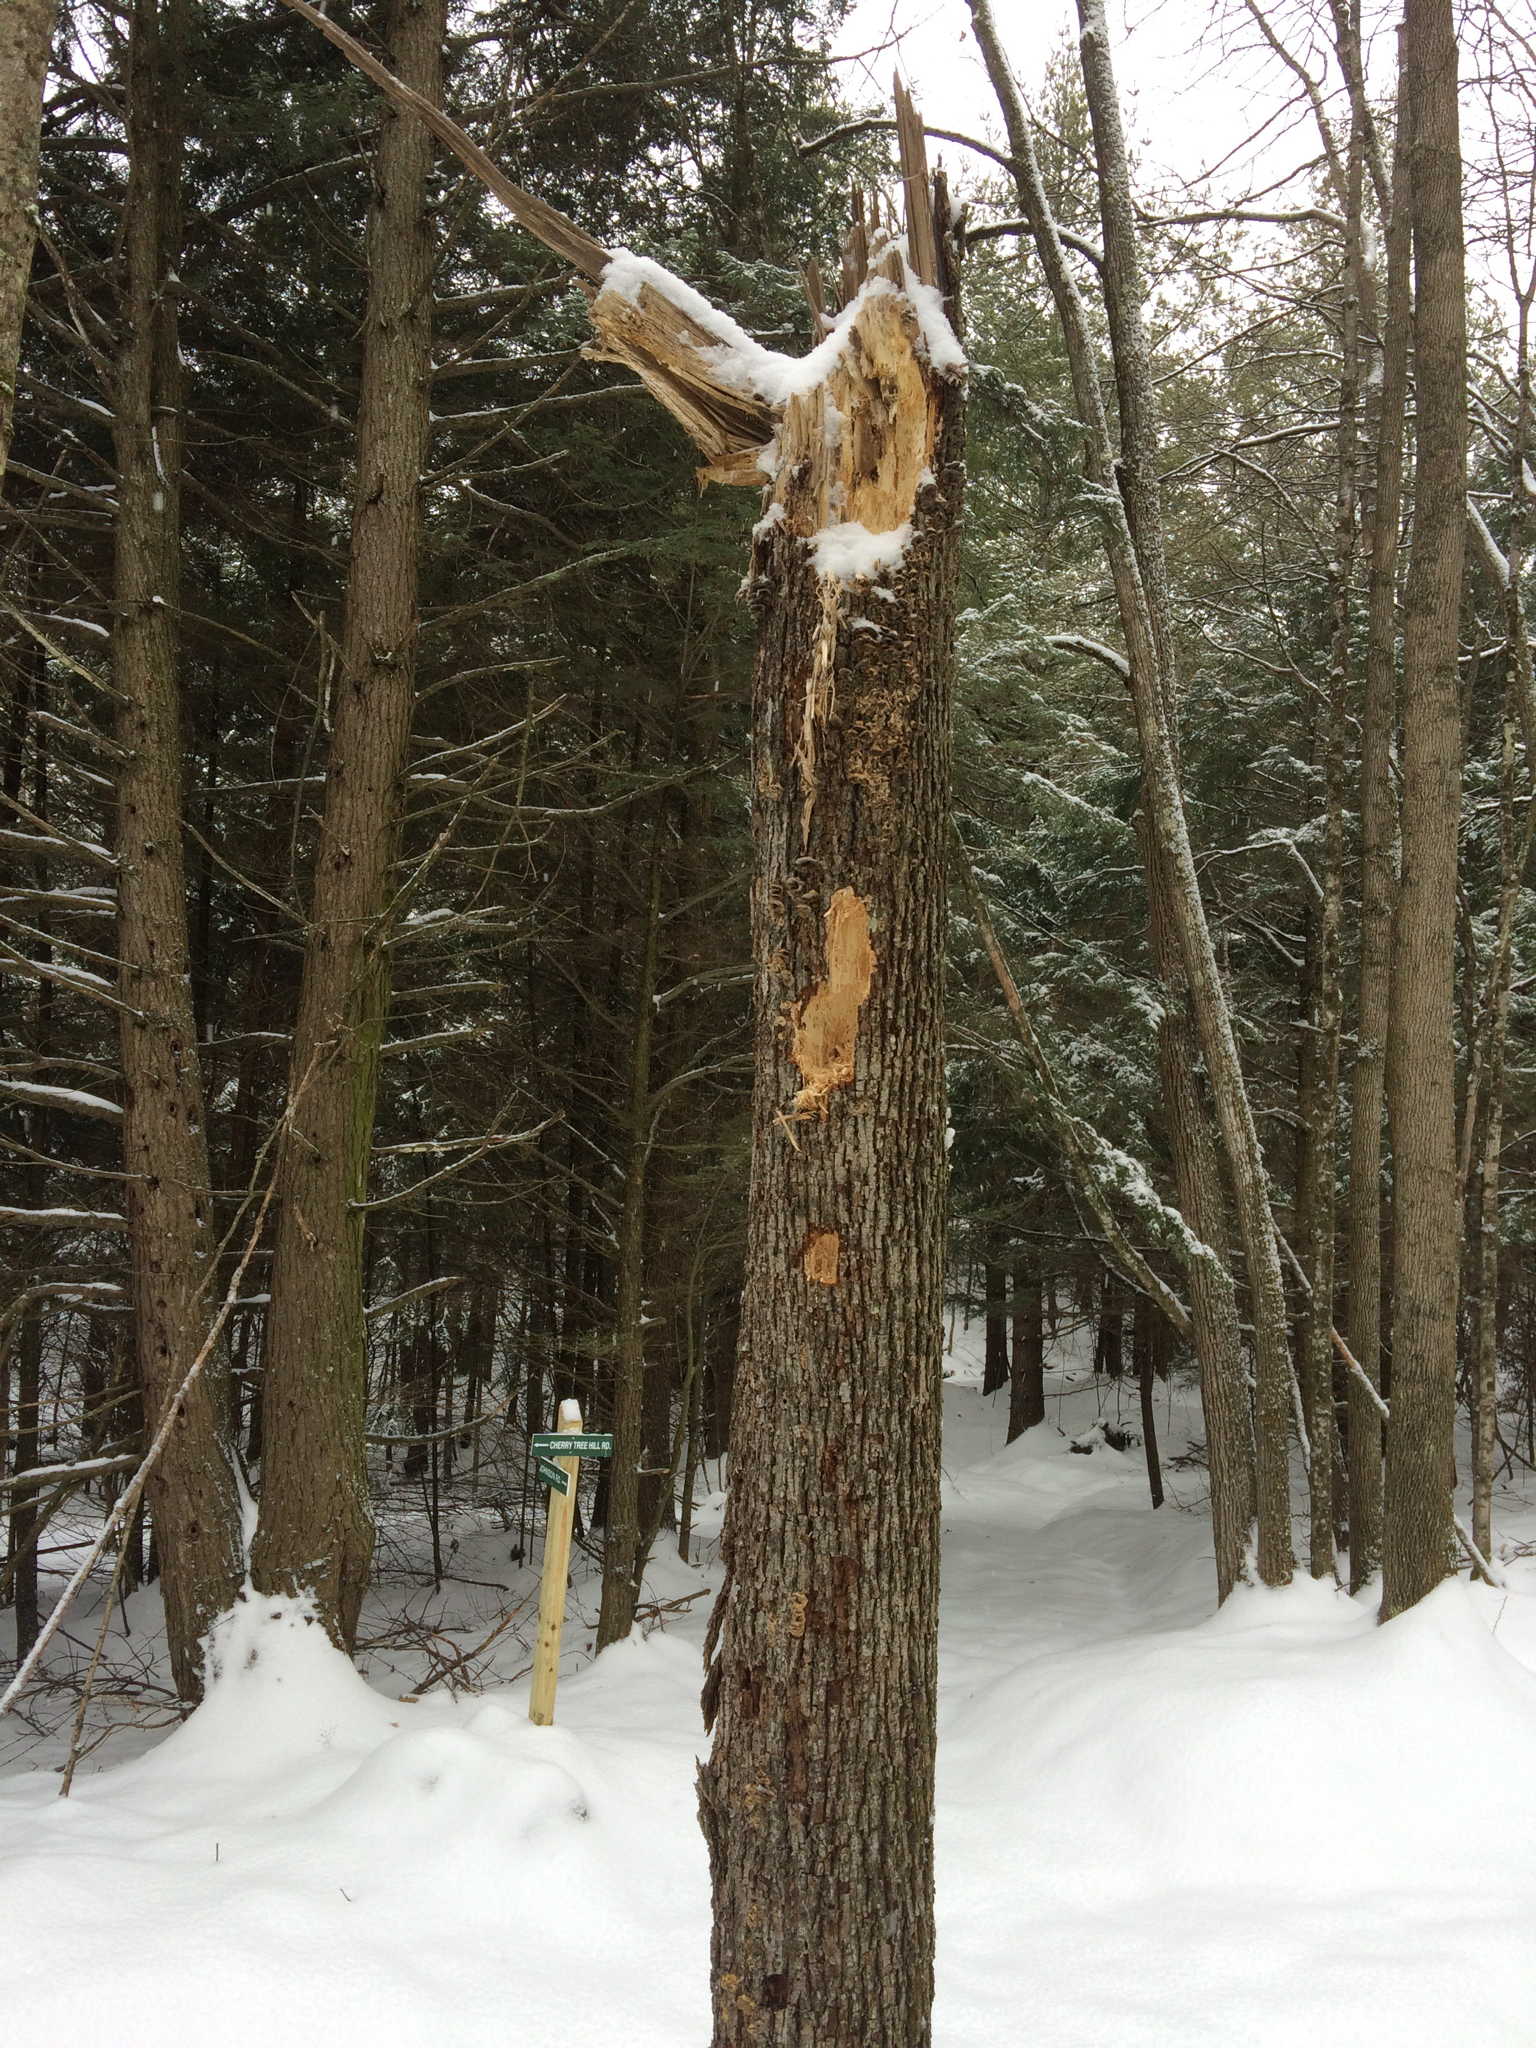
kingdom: Animalia
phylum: Chordata
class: Aves
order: Piciformes
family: Picidae
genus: Dryocopus
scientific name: Dryocopus pileatus
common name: Pileated woodpecker
